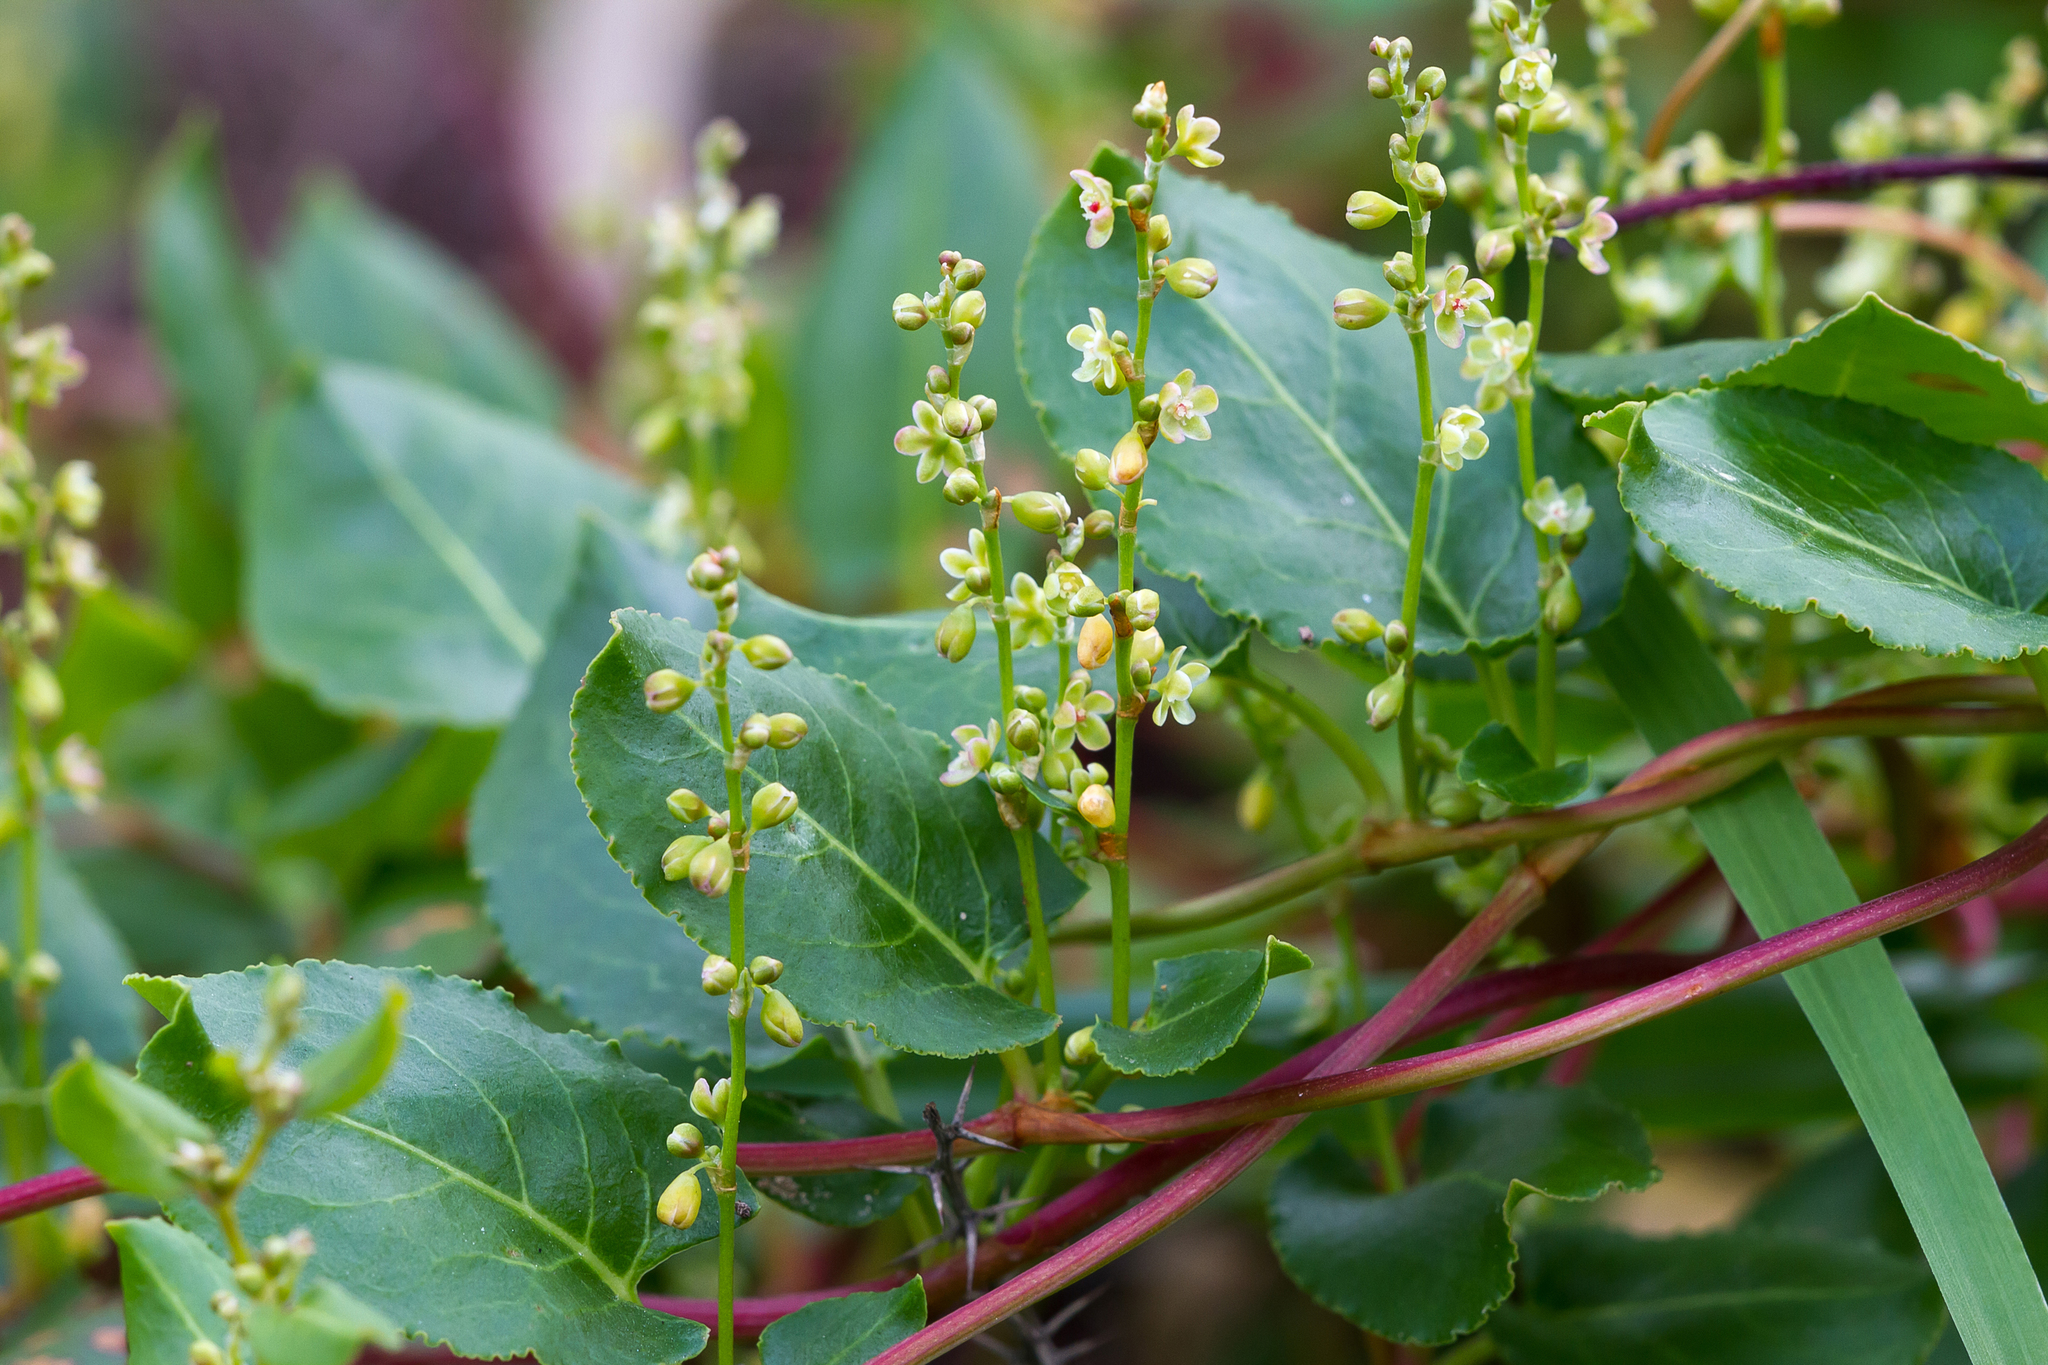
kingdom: Plantae
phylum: Tracheophyta
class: Magnoliopsida
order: Caryophyllales
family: Polygonaceae
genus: Muehlenbeckia
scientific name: Muehlenbeckia adpressa
